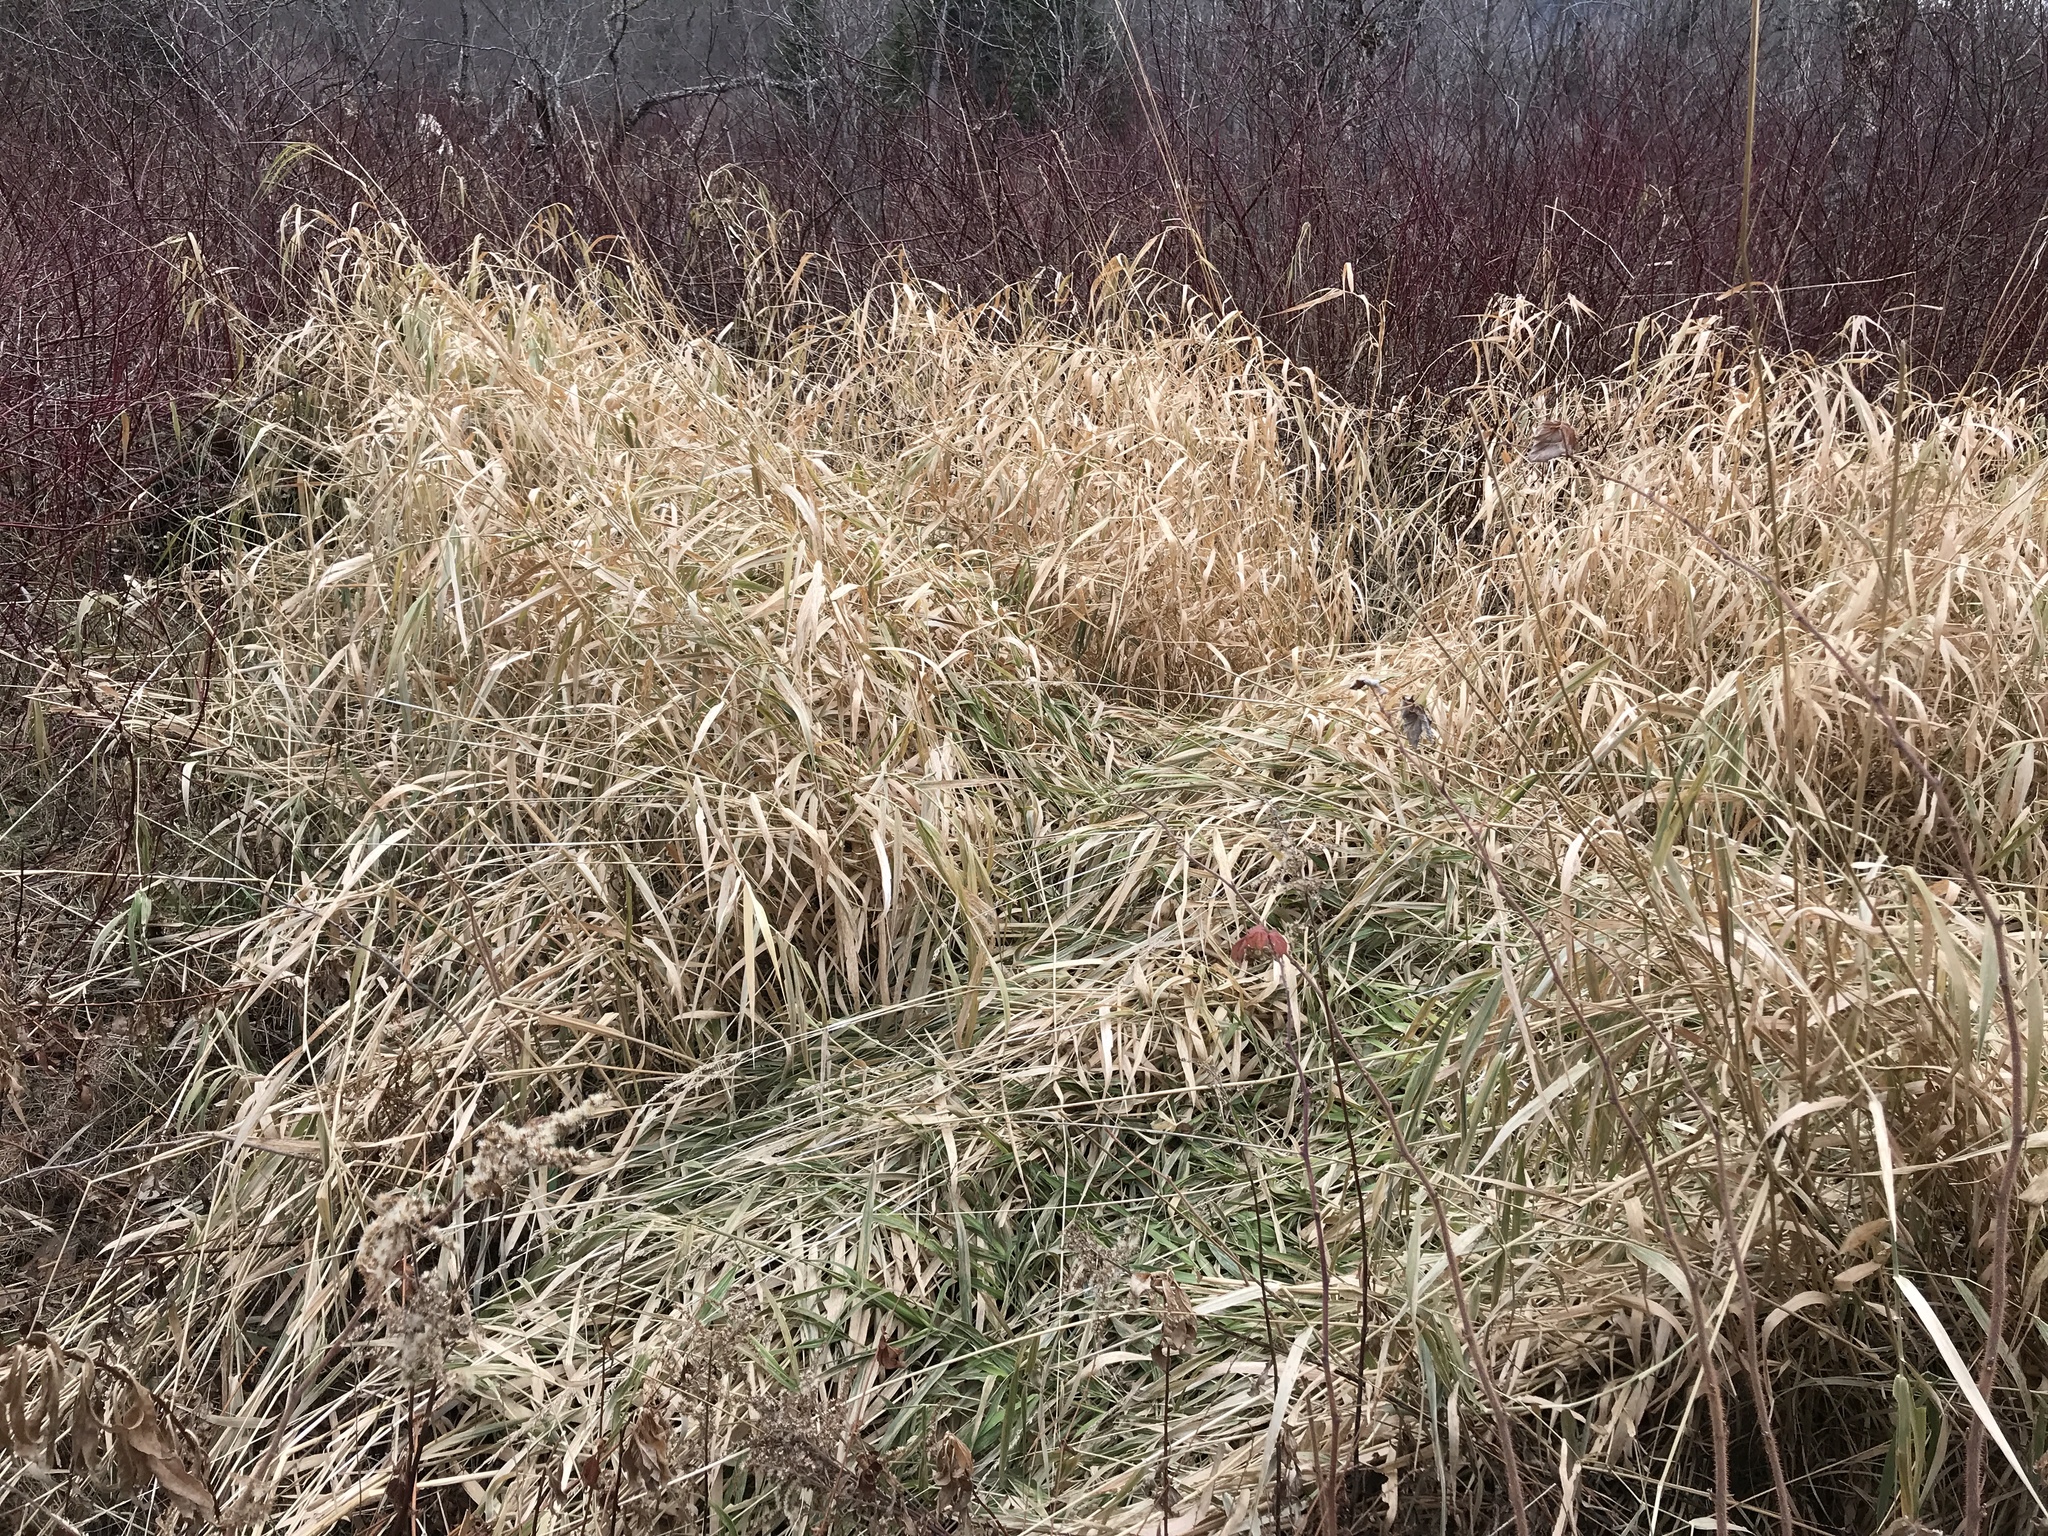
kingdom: Plantae
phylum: Tracheophyta
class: Liliopsida
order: Poales
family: Poaceae
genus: Phalaris
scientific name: Phalaris arundinacea
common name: Reed canary-grass
